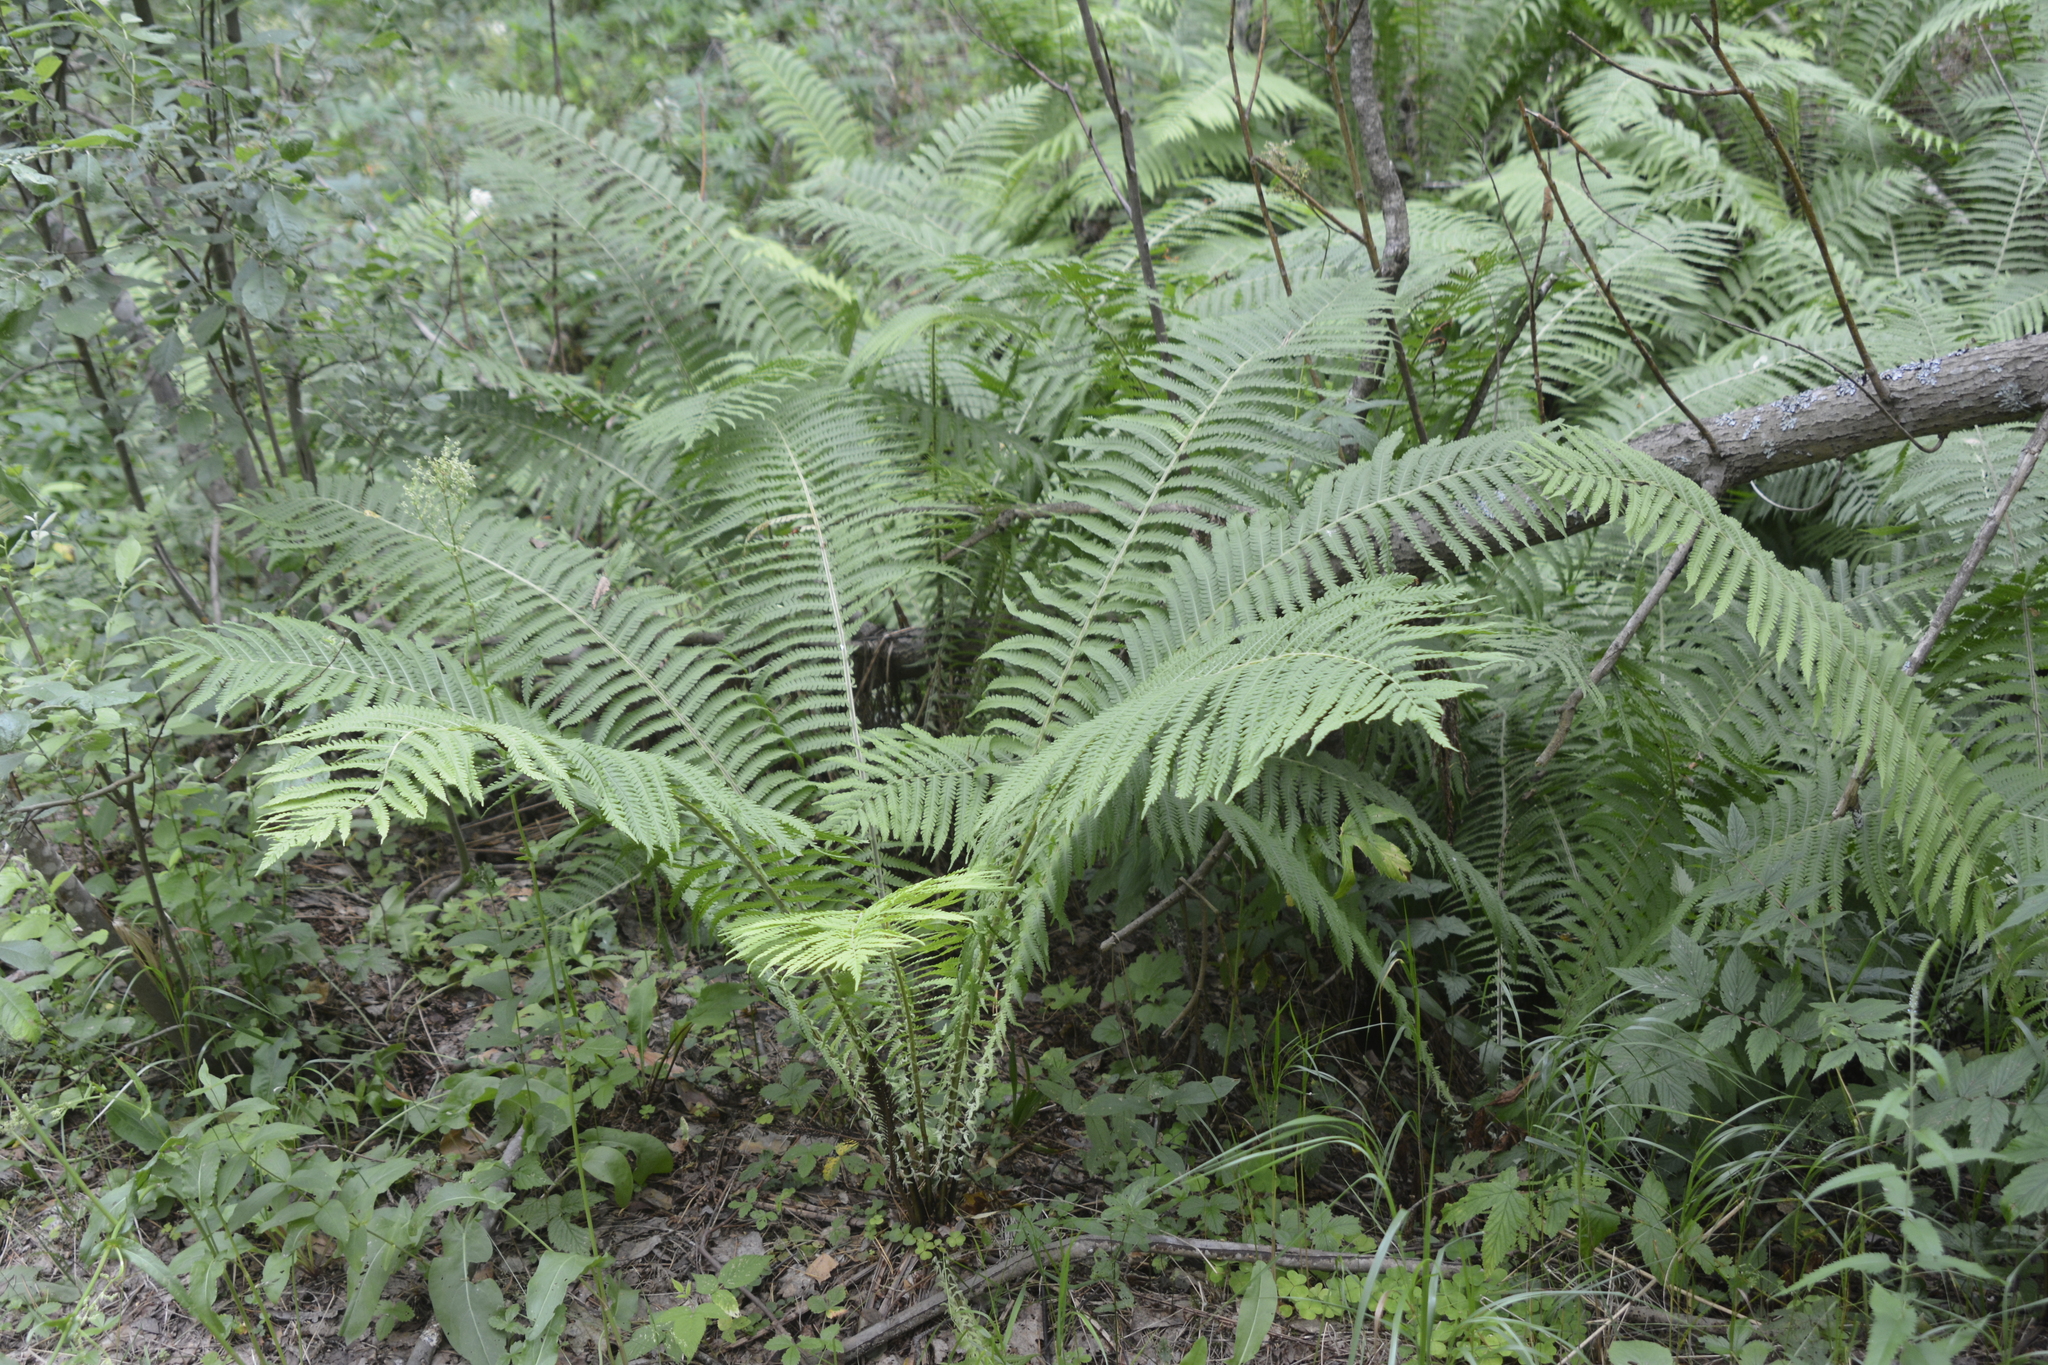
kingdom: Plantae
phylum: Tracheophyta
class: Polypodiopsida
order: Polypodiales
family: Onocleaceae
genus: Matteuccia
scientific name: Matteuccia struthiopteris
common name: Ostrich fern
